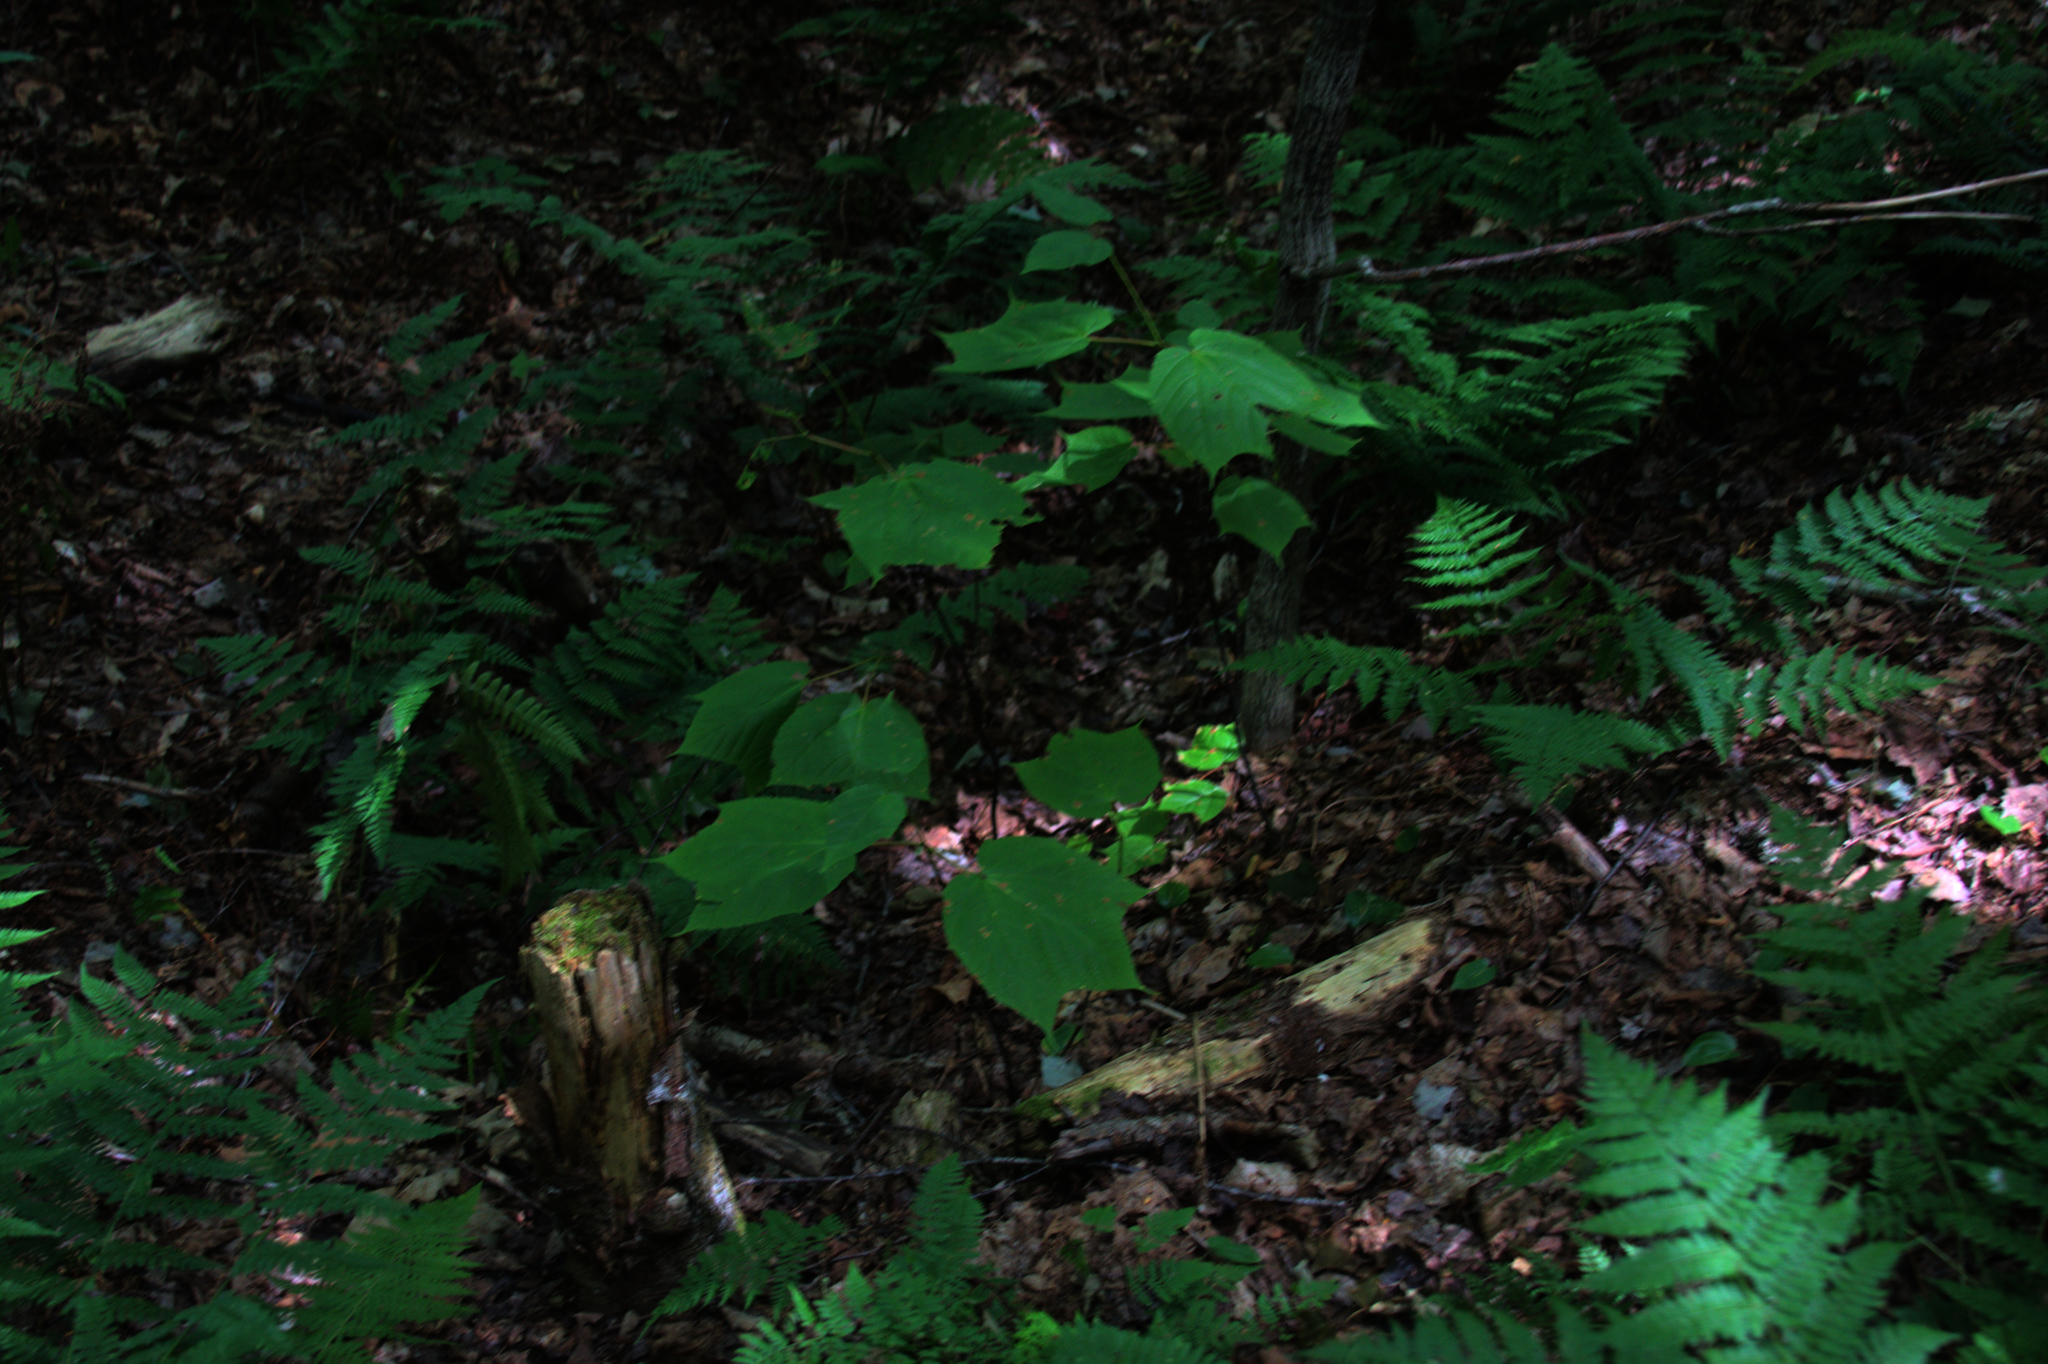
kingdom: Plantae
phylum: Tracheophyta
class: Magnoliopsida
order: Sapindales
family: Sapindaceae
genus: Acer
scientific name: Acer pensylvanicum
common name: Moosewood
